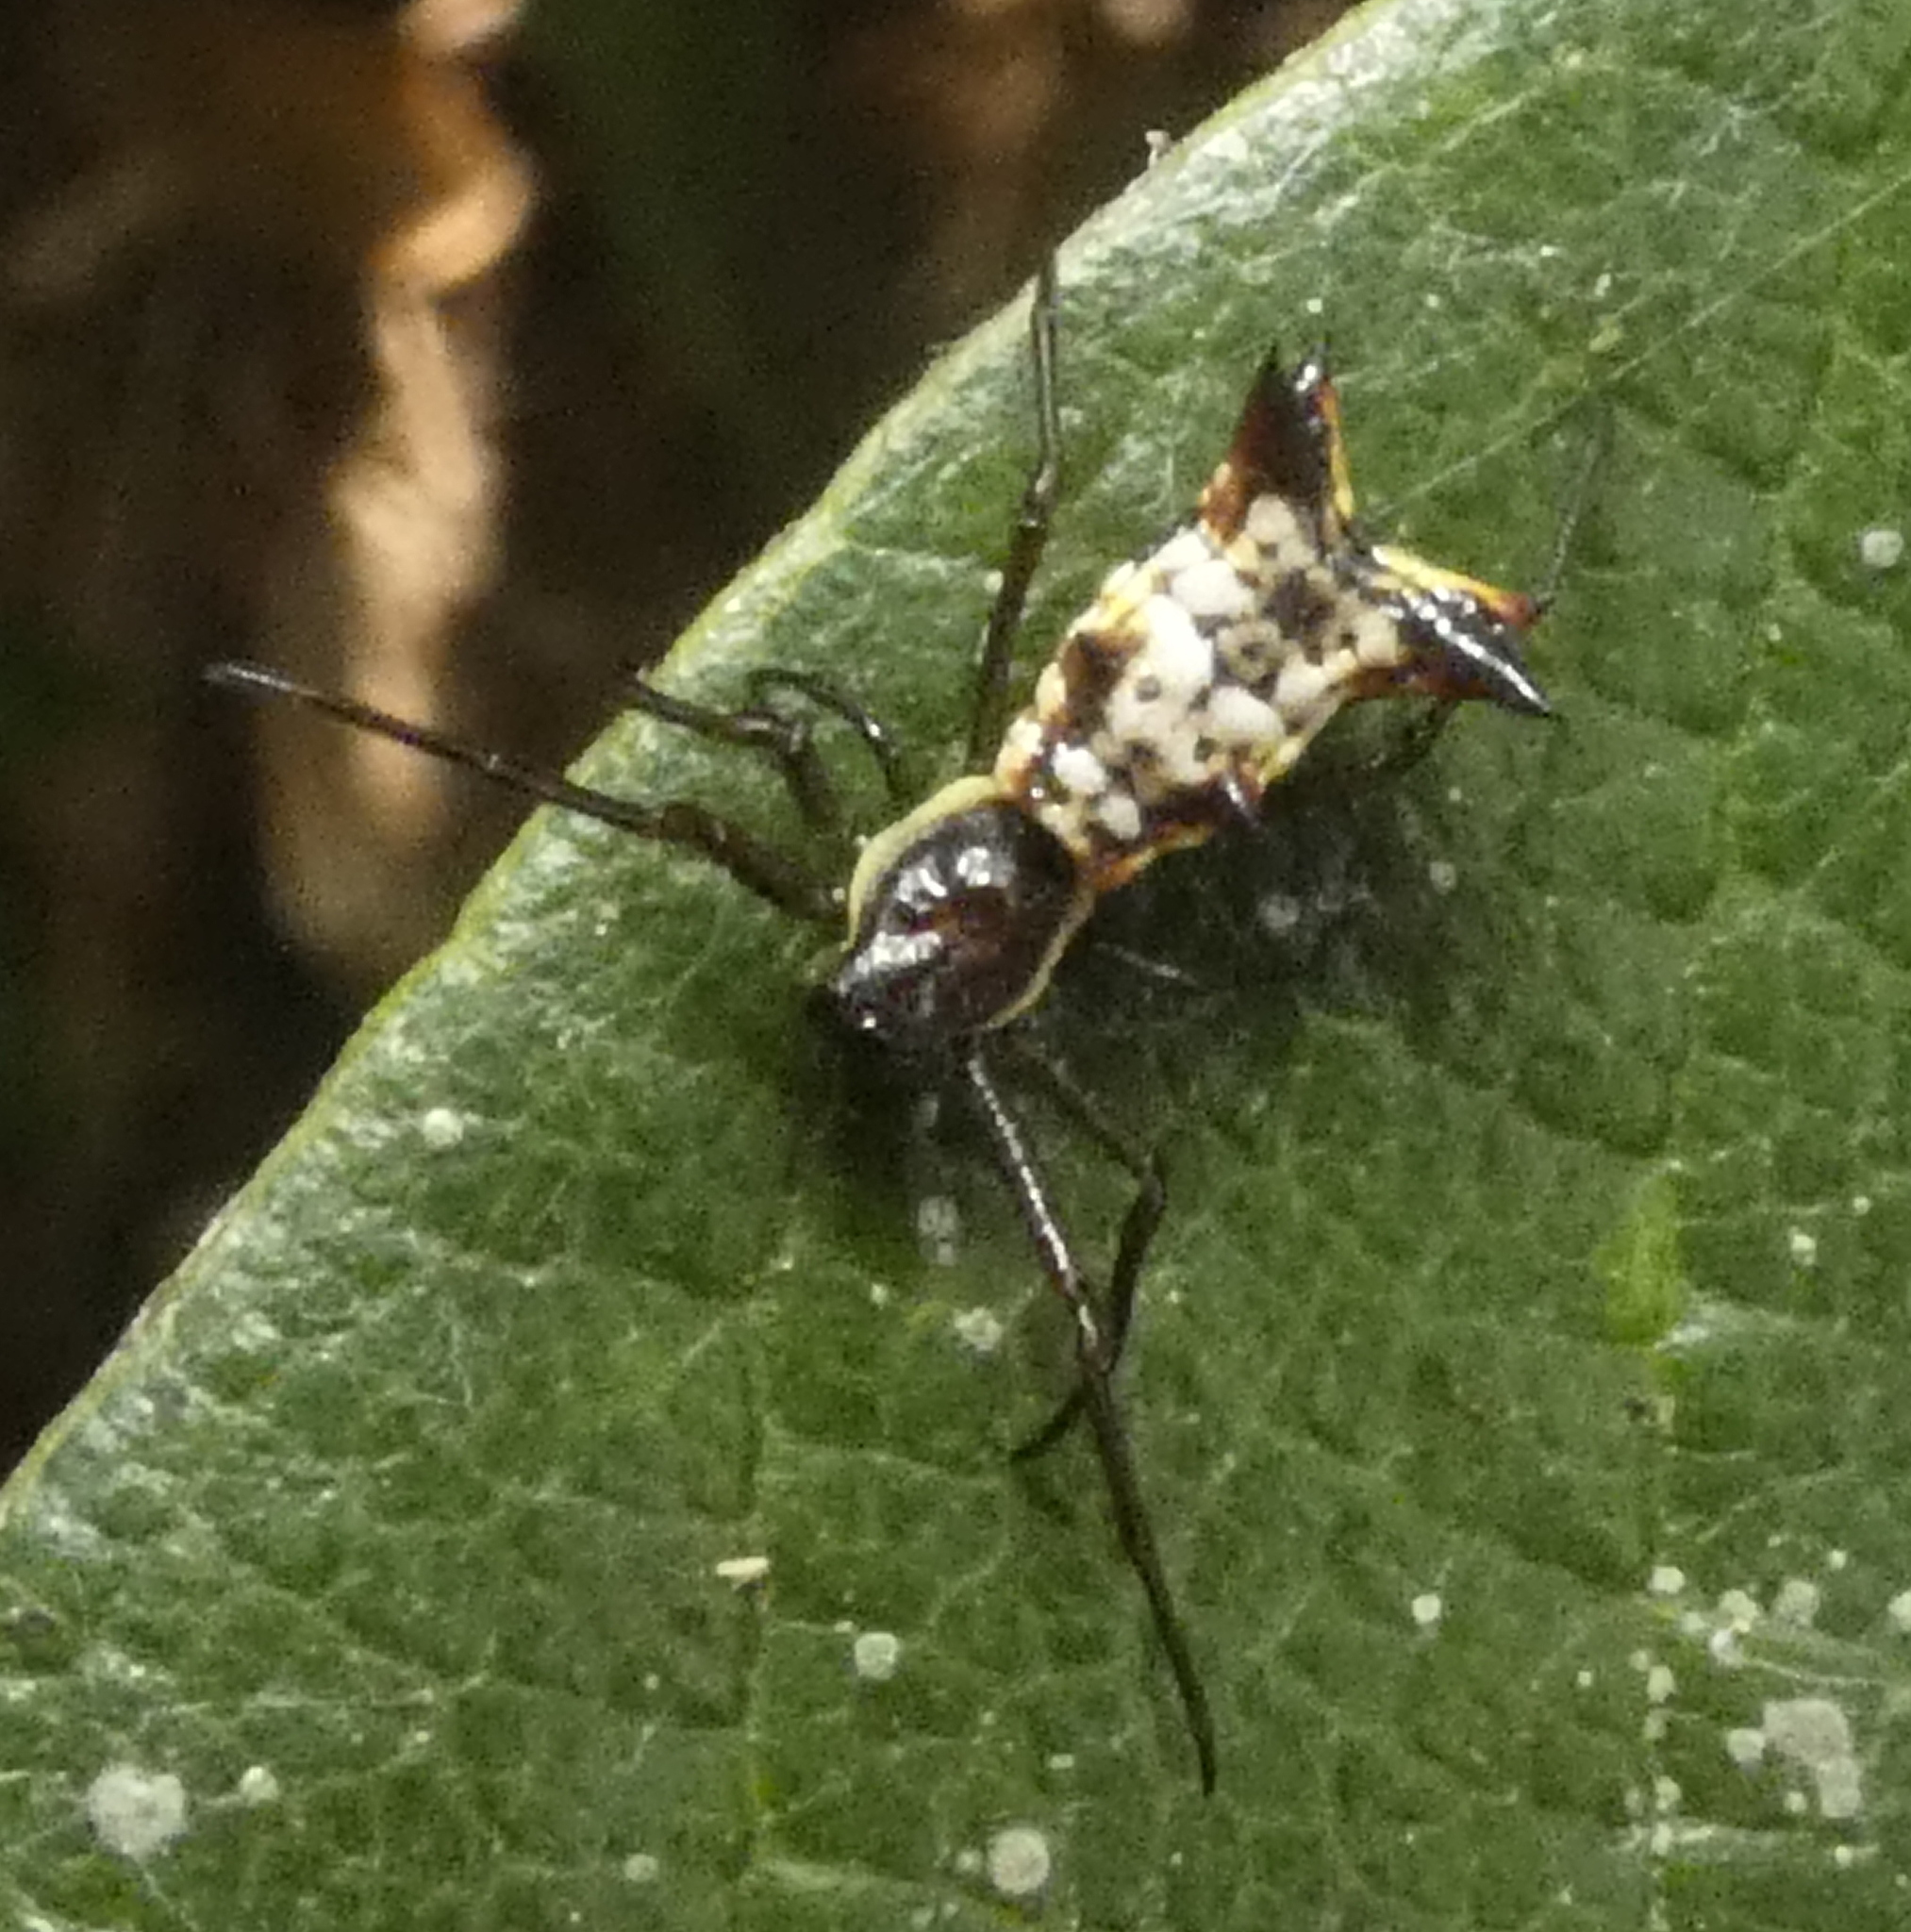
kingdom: Animalia
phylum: Arthropoda
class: Arachnida
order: Araneae
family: Araneidae
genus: Micrathena
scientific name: Micrathena fissispina
